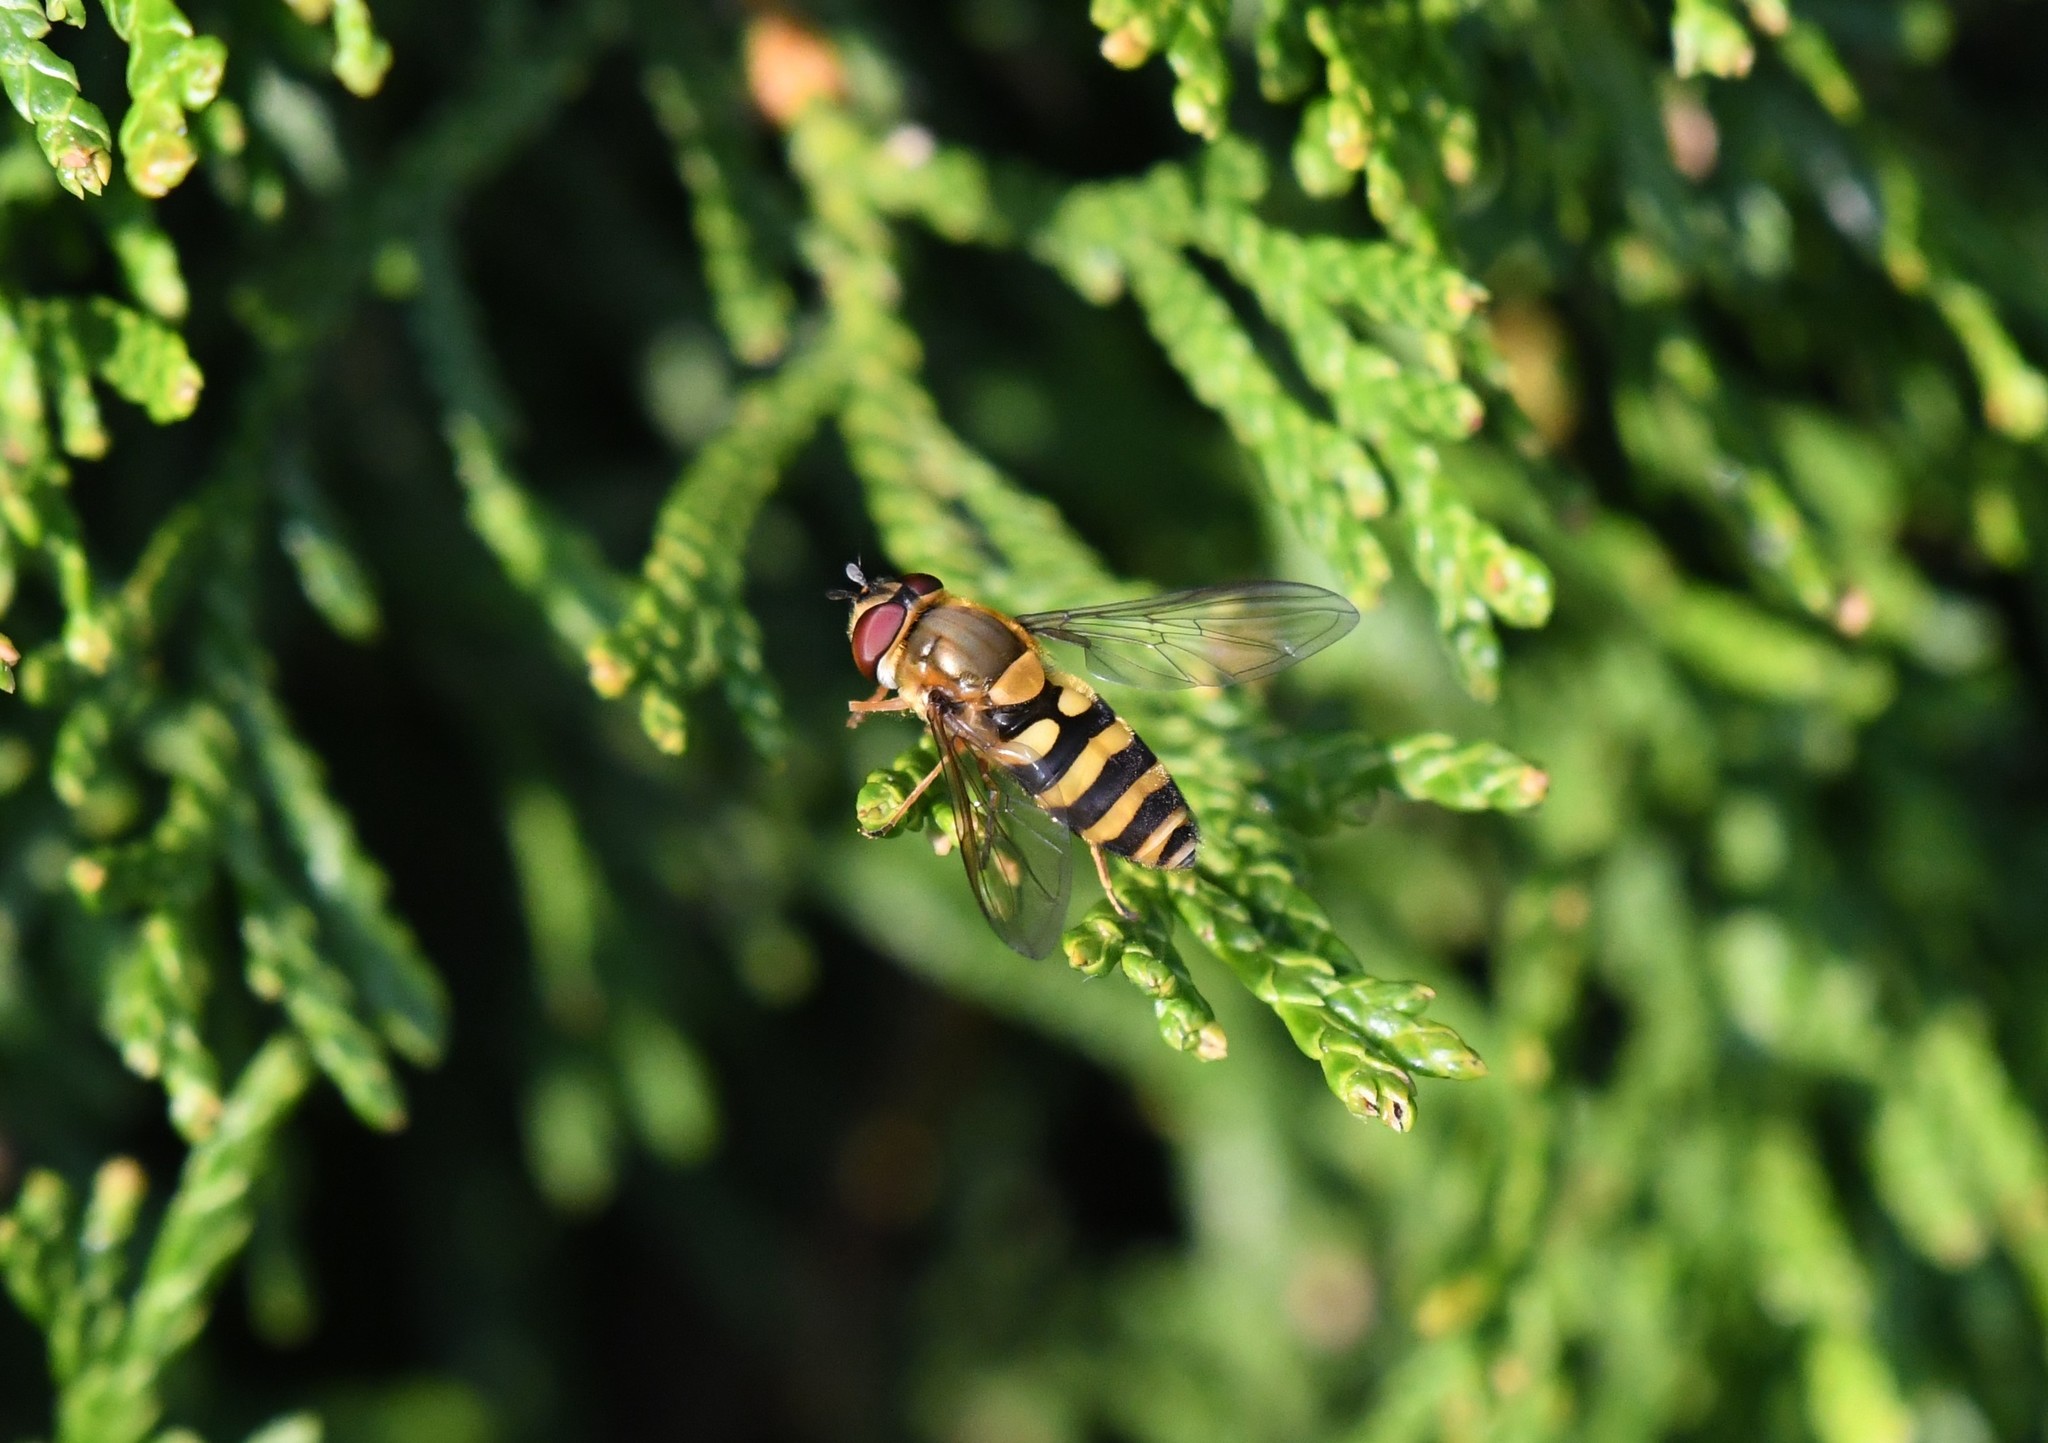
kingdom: Animalia
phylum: Arthropoda
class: Insecta
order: Diptera
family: Syrphidae
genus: Syrphus
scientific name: Syrphus
